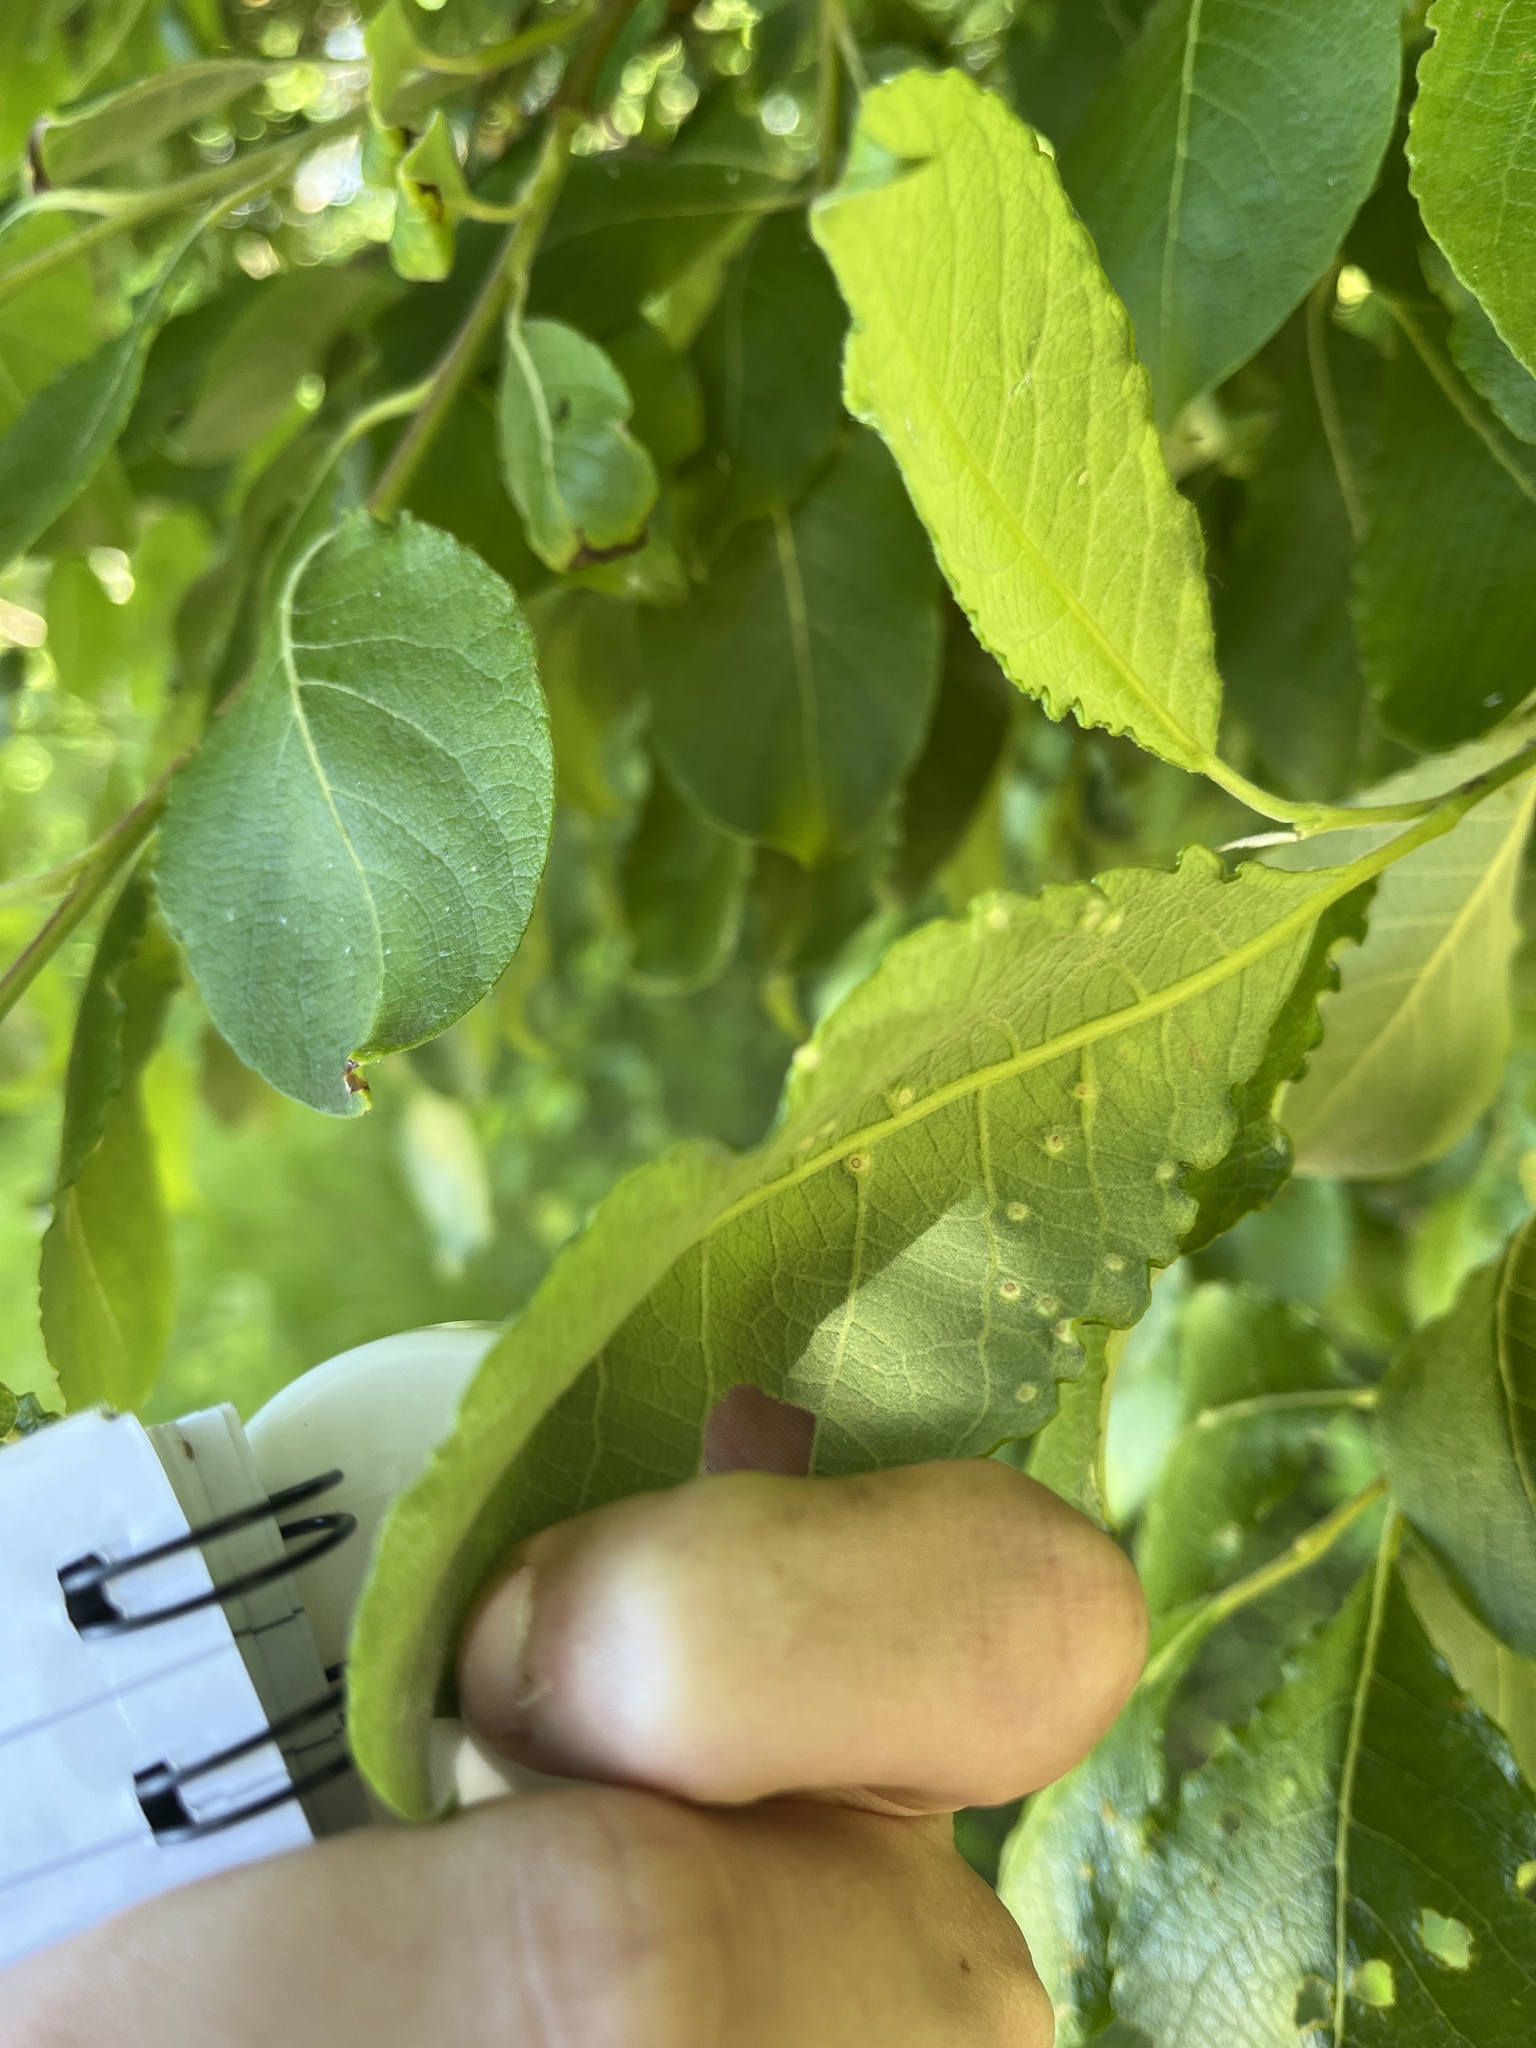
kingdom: Animalia
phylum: Arthropoda
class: Insecta
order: Diptera
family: Cecidomyiidae
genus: Iteomyia
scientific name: Iteomyia capreae
